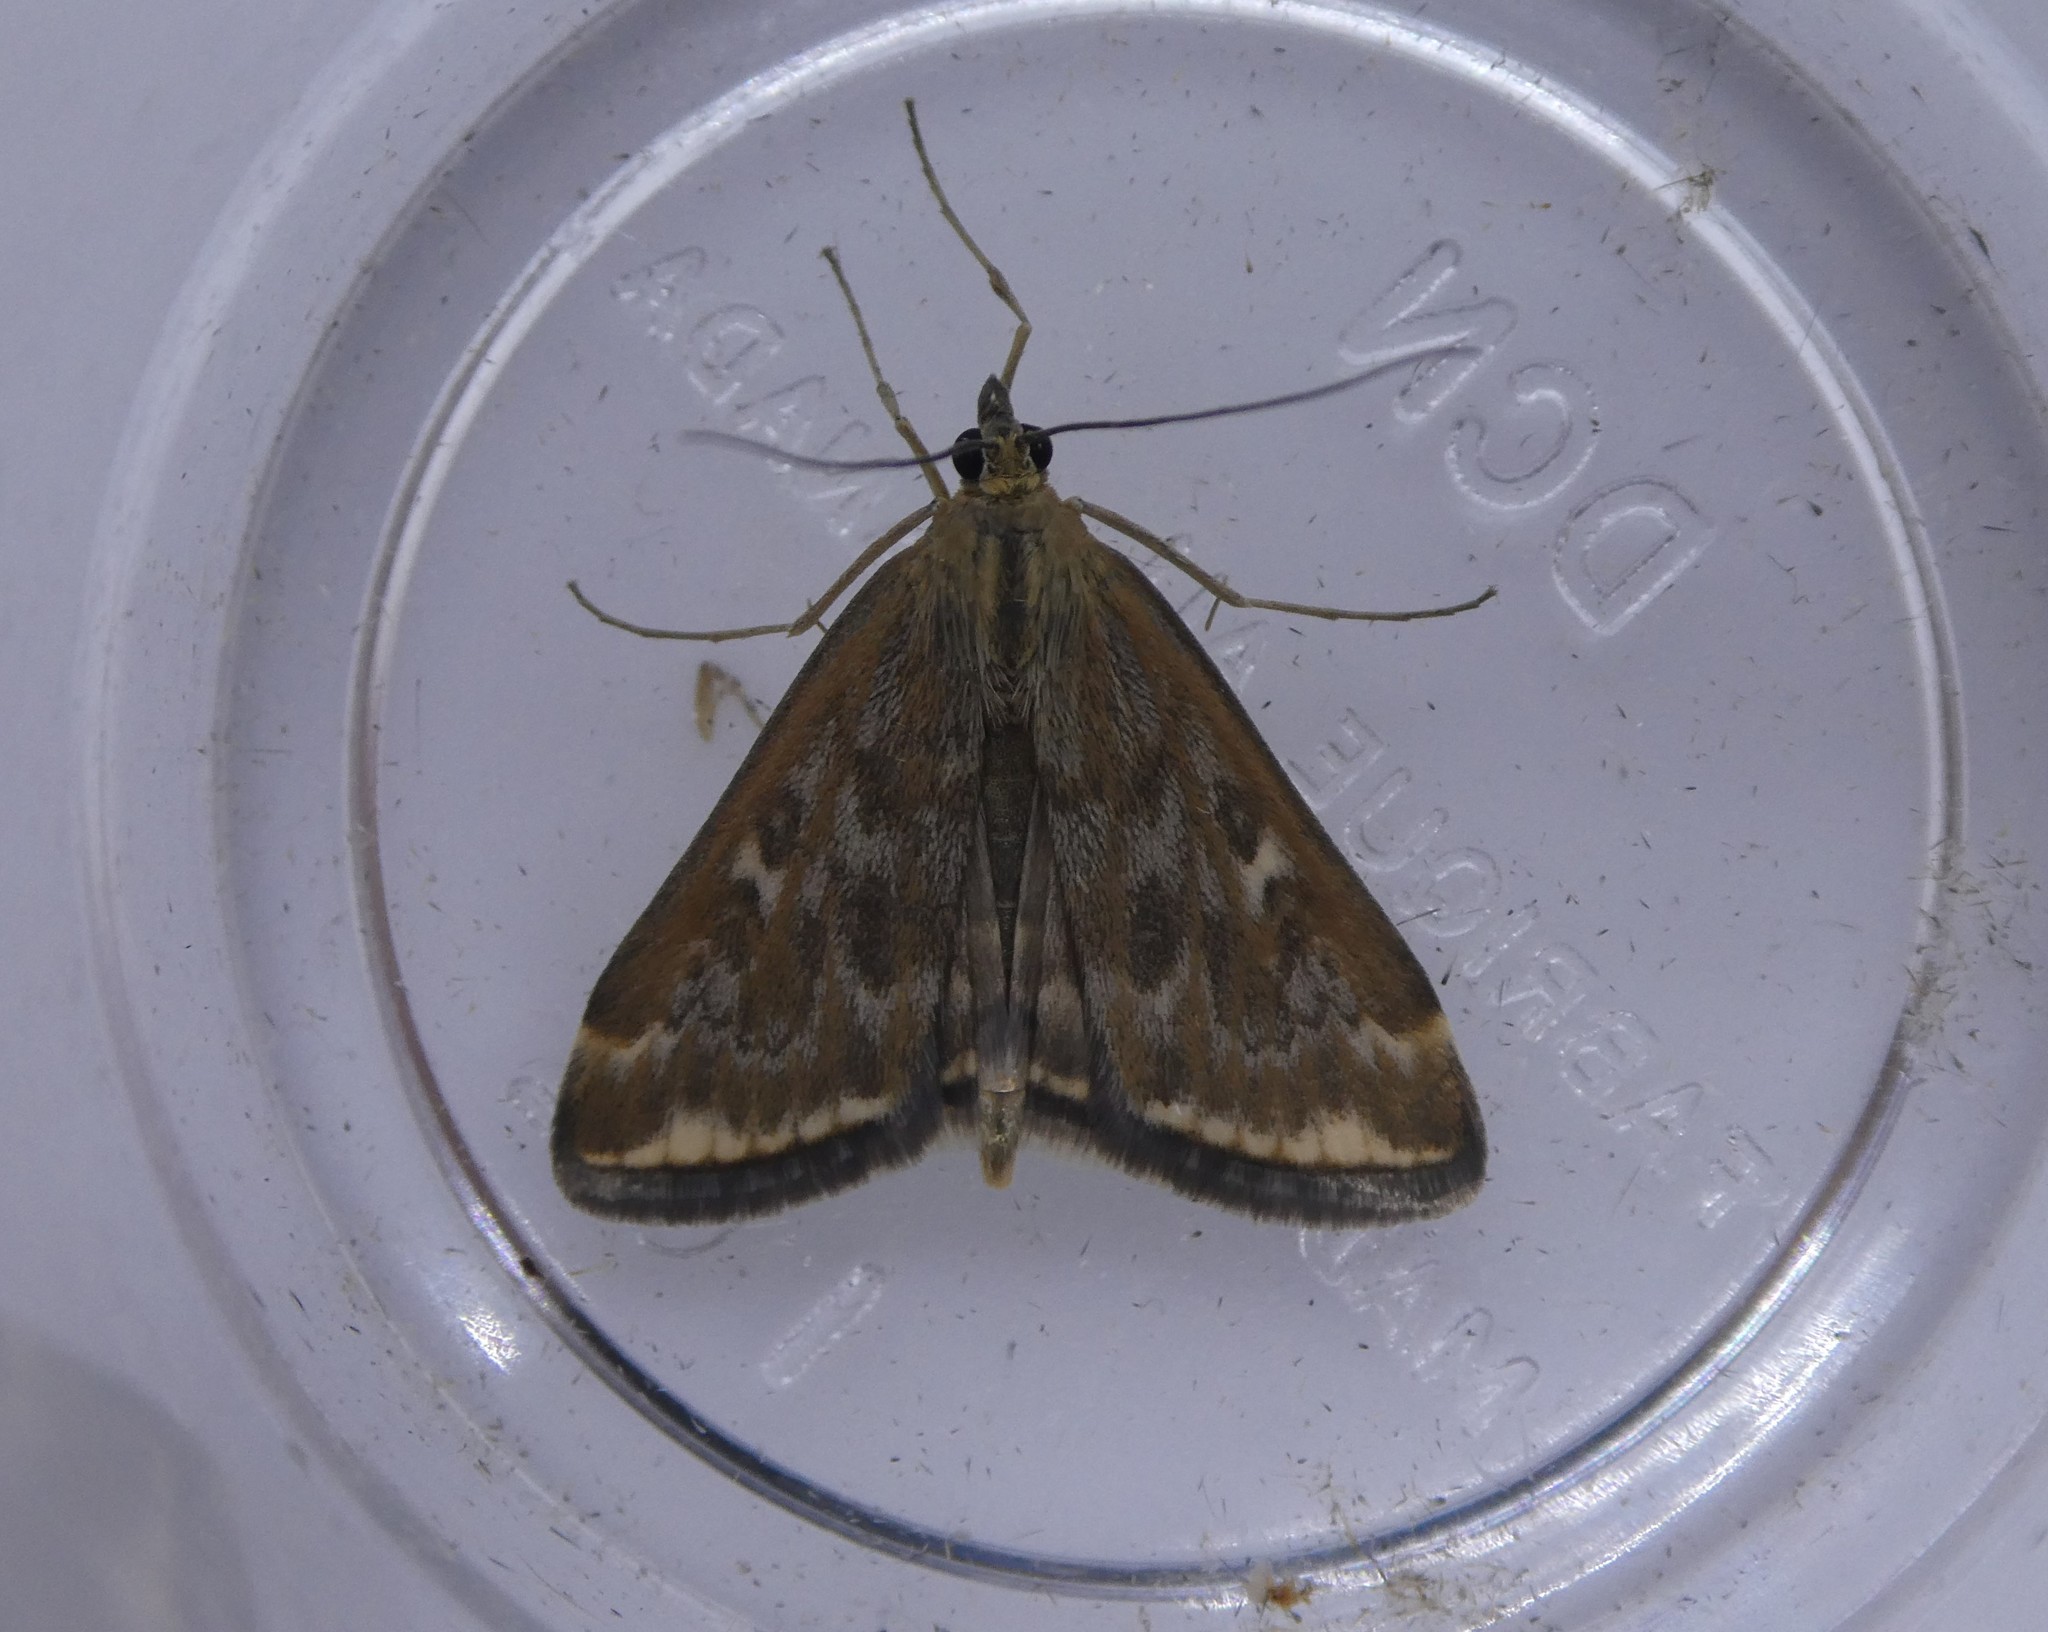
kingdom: Animalia
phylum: Arthropoda
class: Insecta
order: Lepidoptera
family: Crambidae
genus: Loxostege
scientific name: Loxostege
